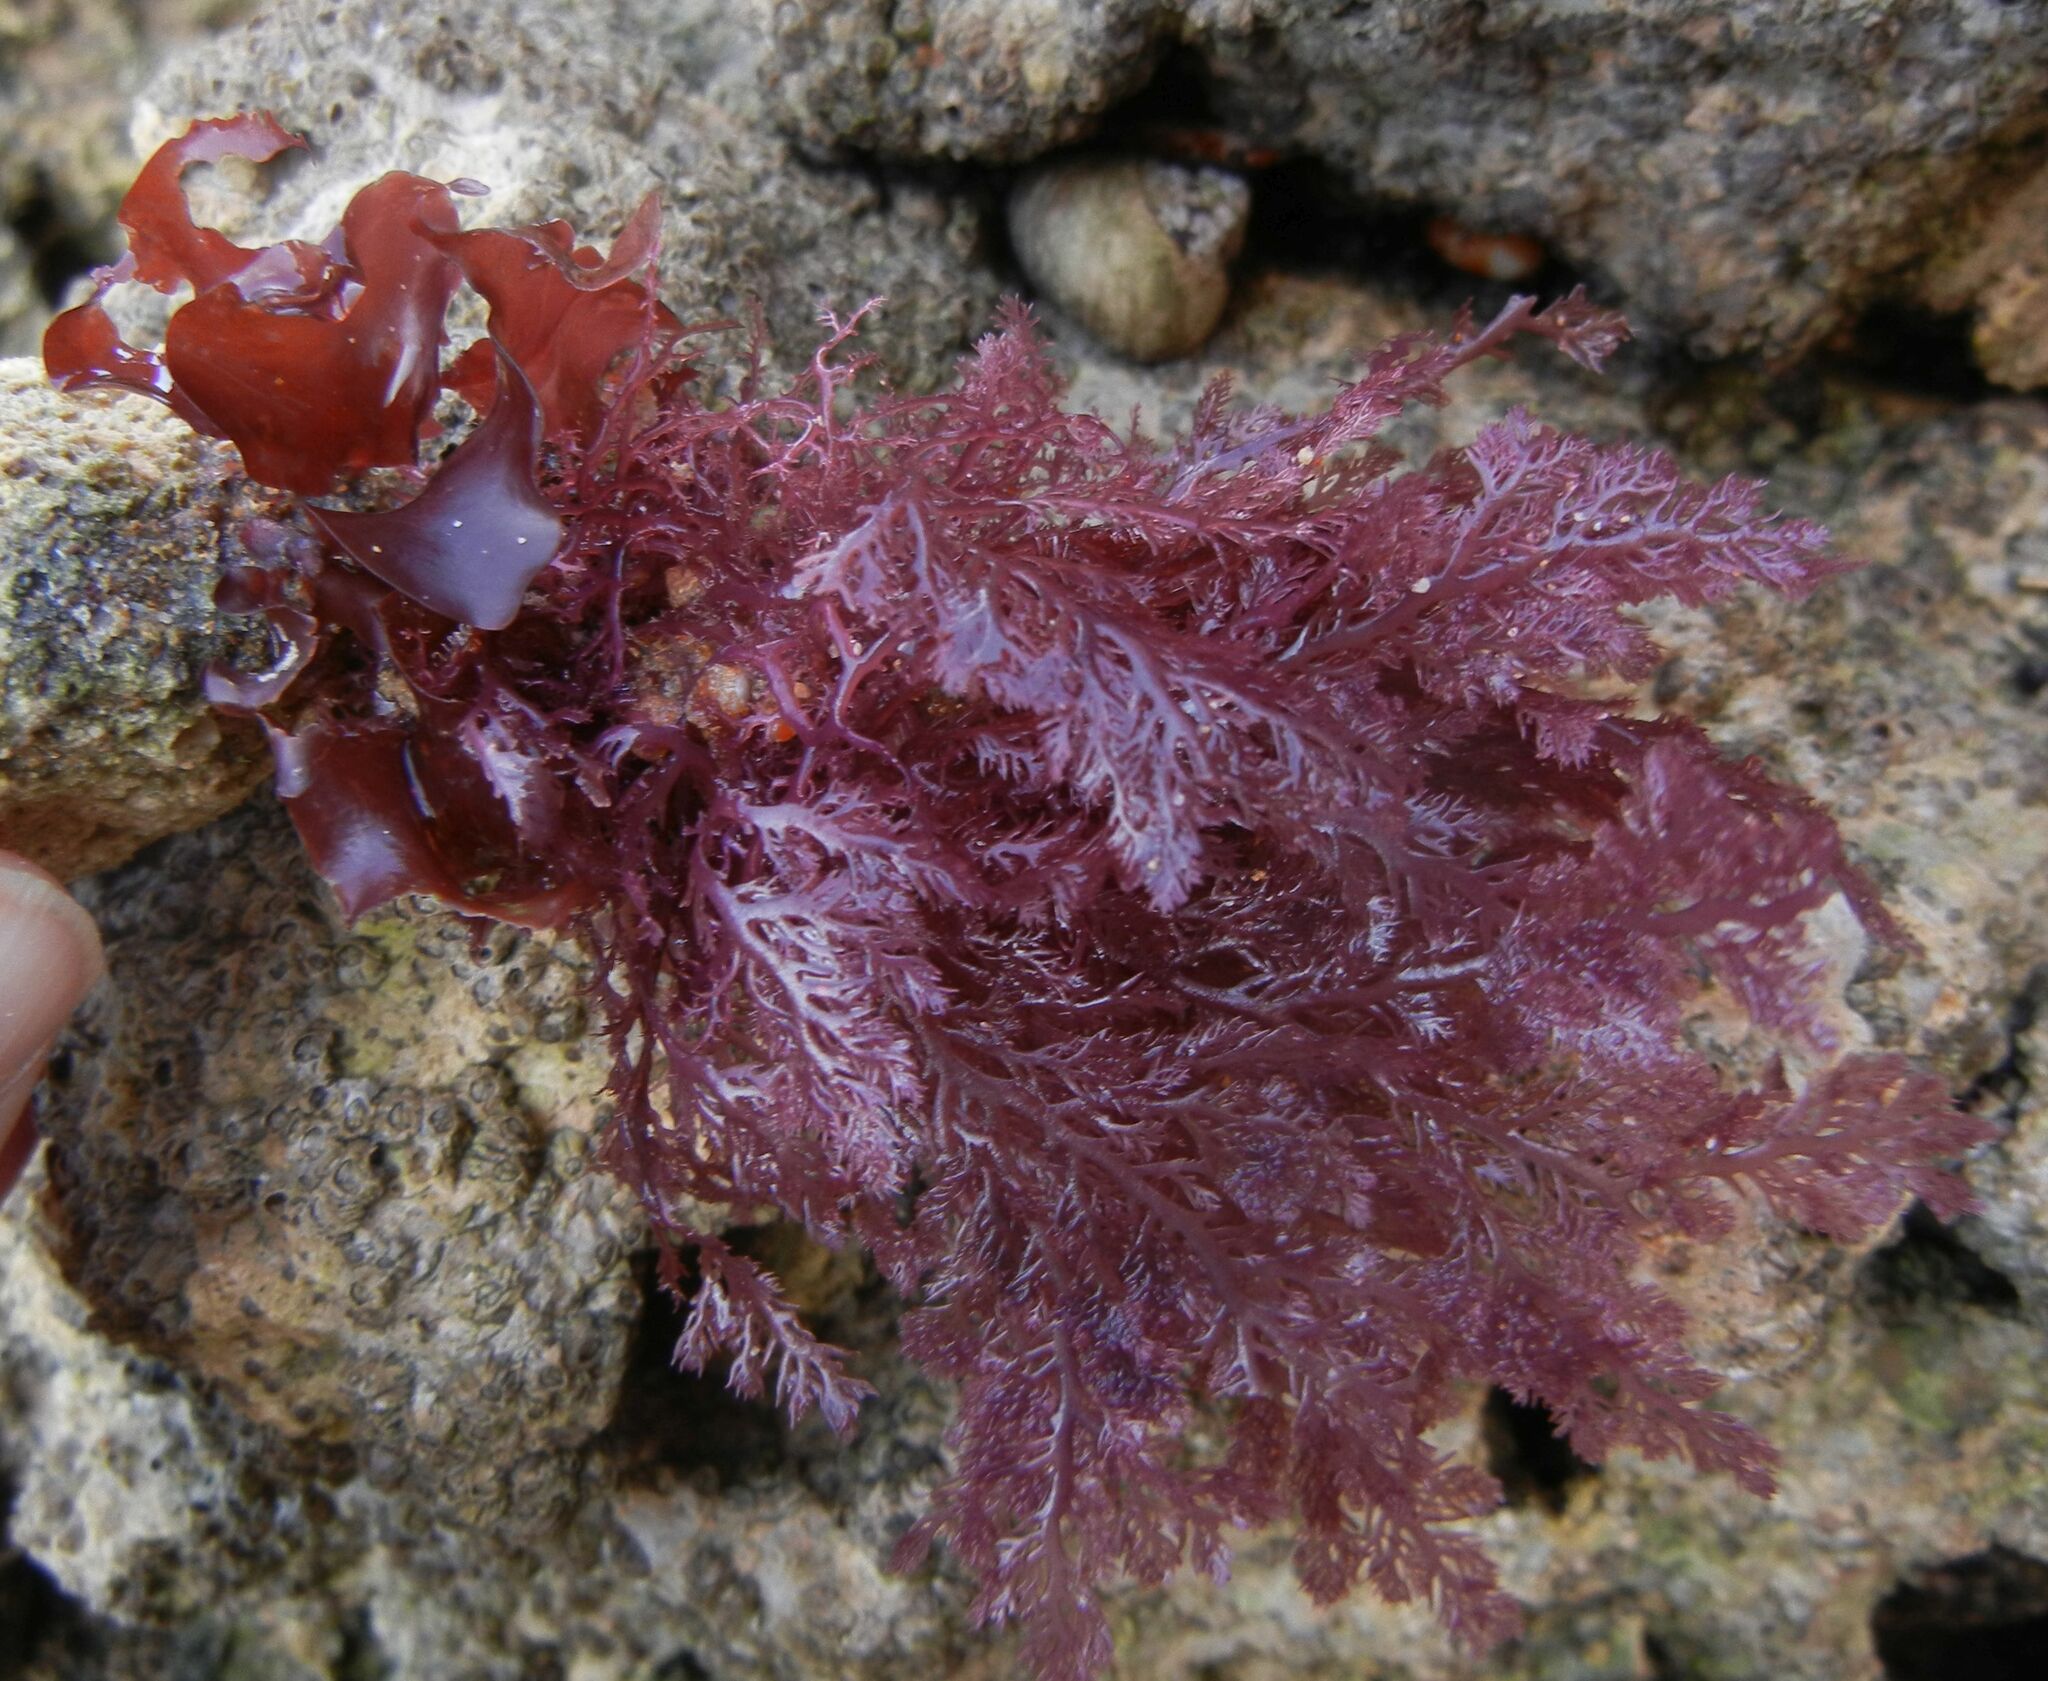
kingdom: Plantae
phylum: Rhodophyta
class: Florideophyceae
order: Plocamiales
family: Plocamiaceae
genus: Plocamium
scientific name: Plocamium cartilagineum
